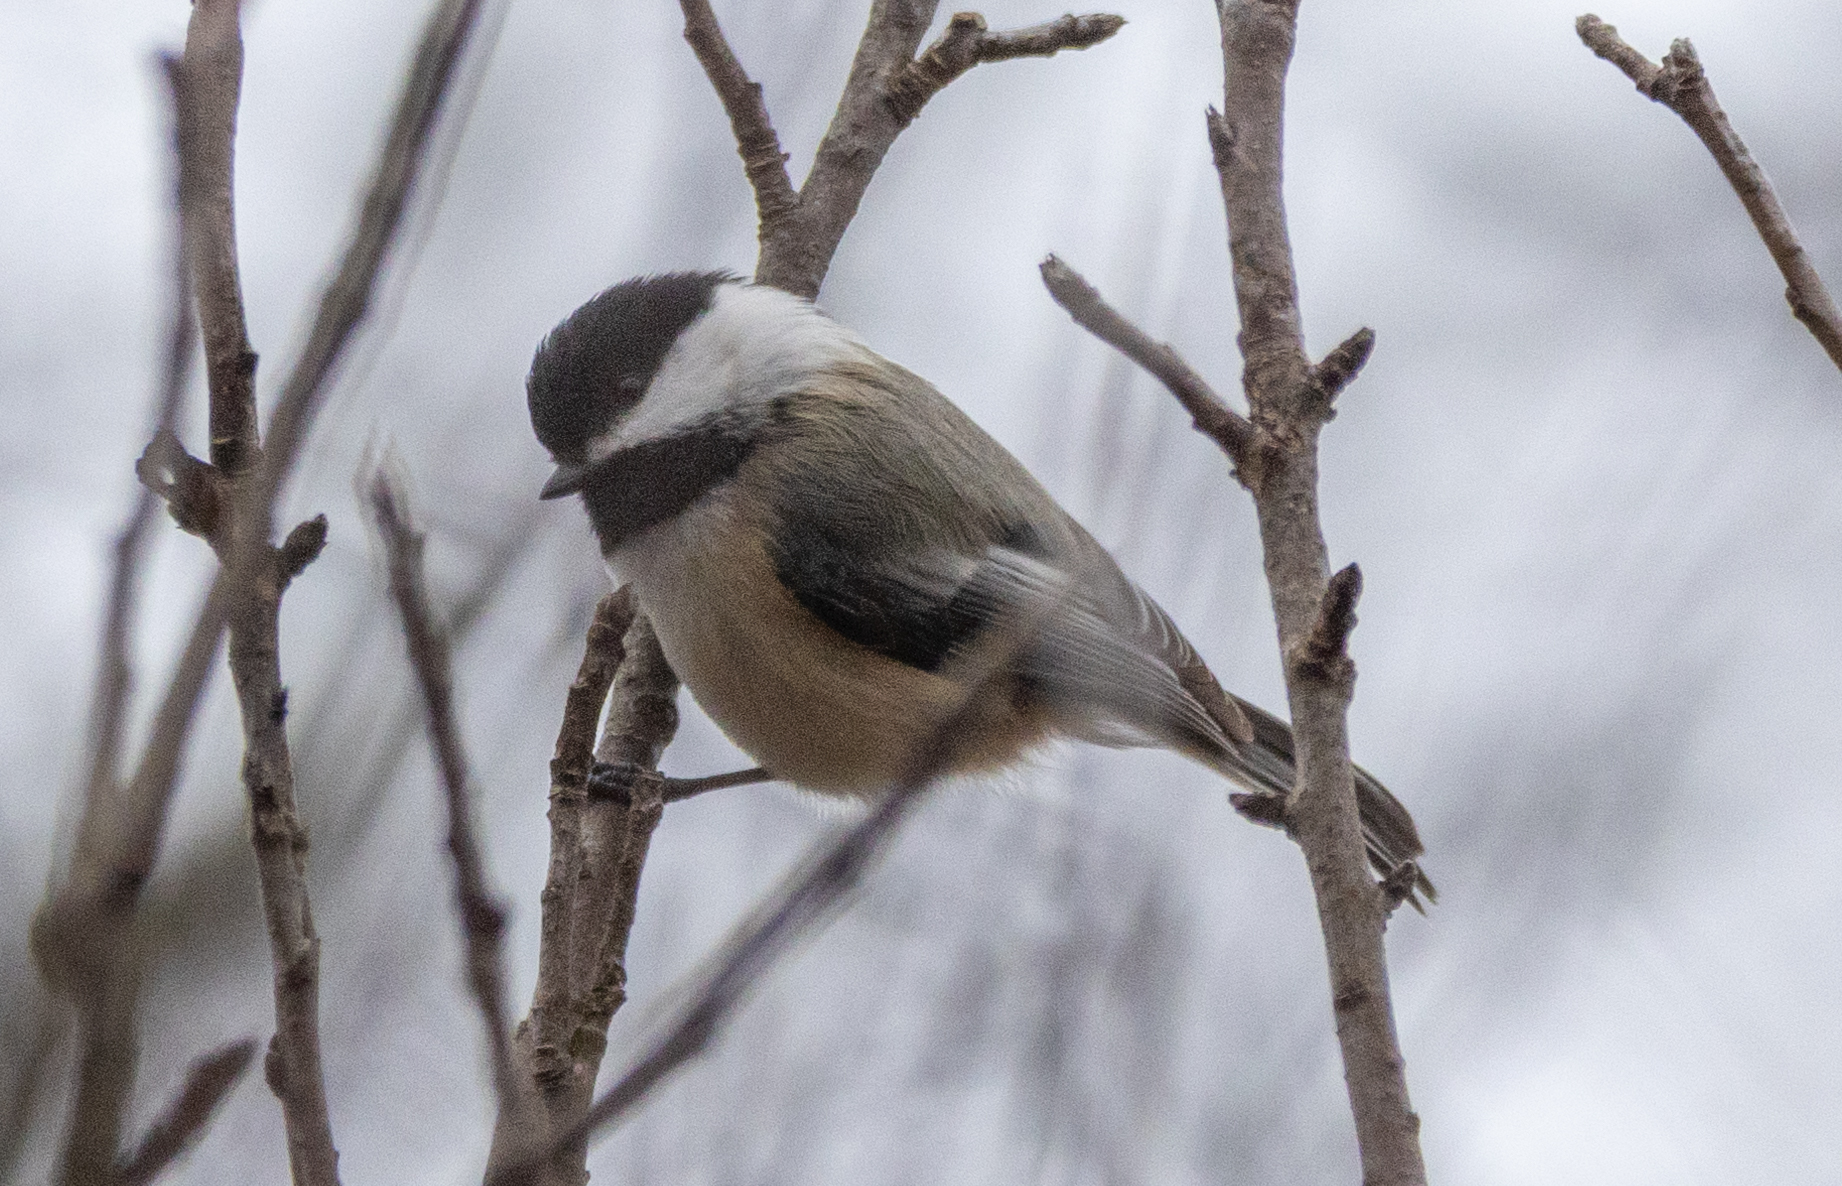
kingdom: Animalia
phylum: Chordata
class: Aves
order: Passeriformes
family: Paridae
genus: Poecile
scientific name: Poecile atricapillus
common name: Black-capped chickadee
